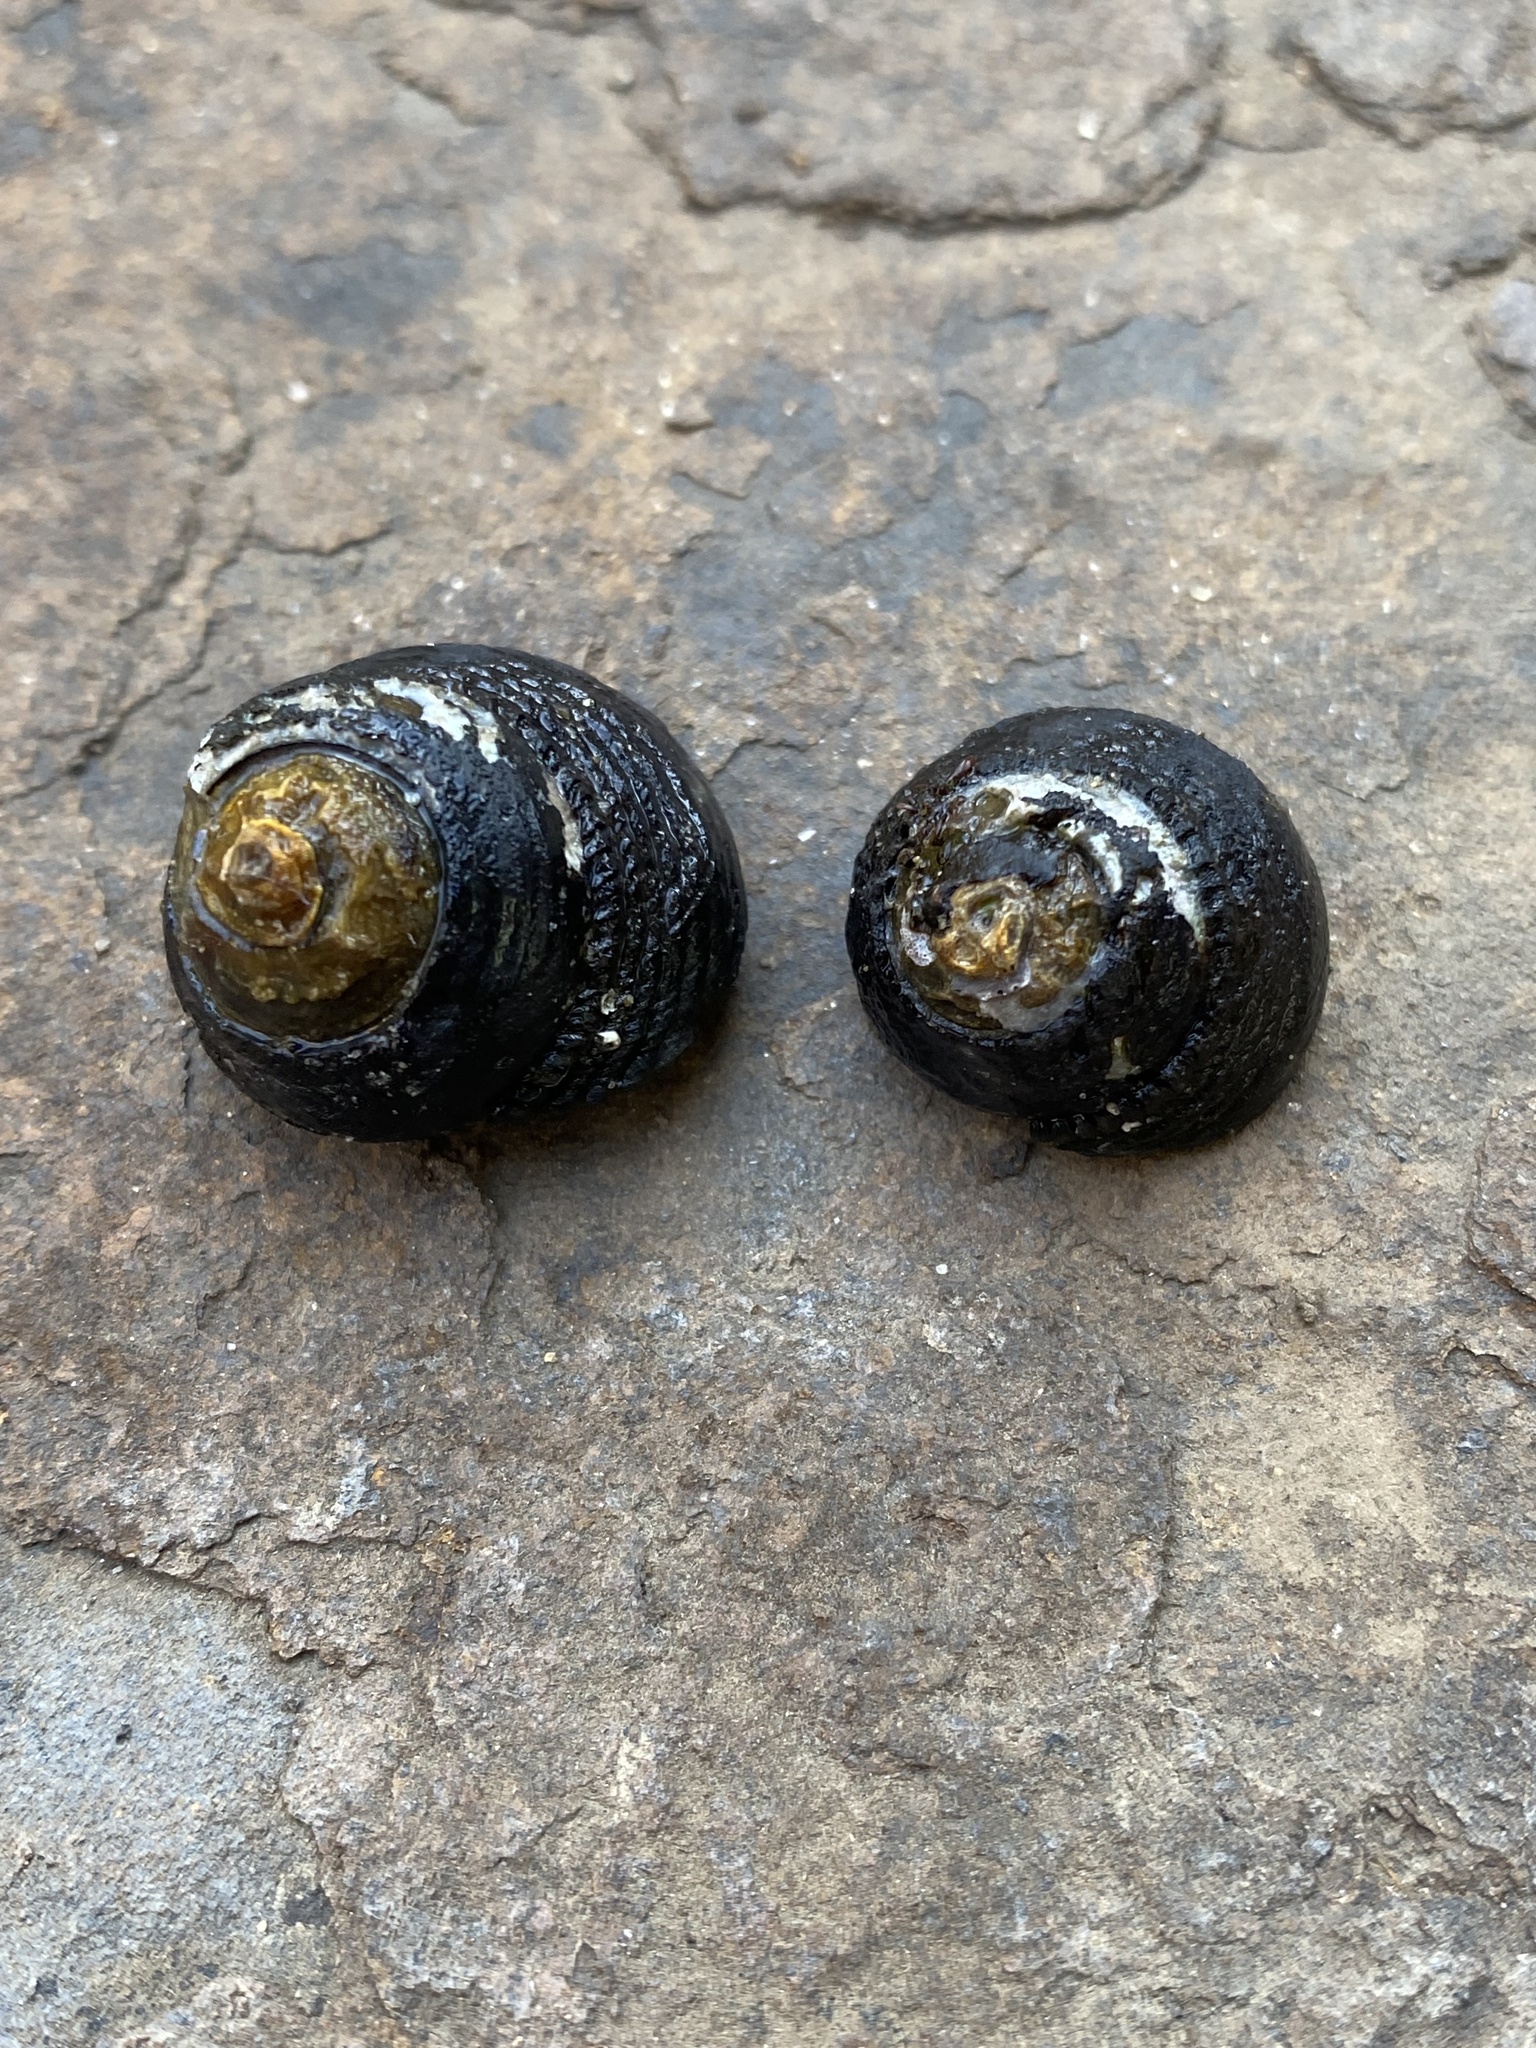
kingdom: Animalia
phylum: Mollusca
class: Gastropoda
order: Trochida
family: Tegulidae
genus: Tegula
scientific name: Tegula funebralis
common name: Black tegula
